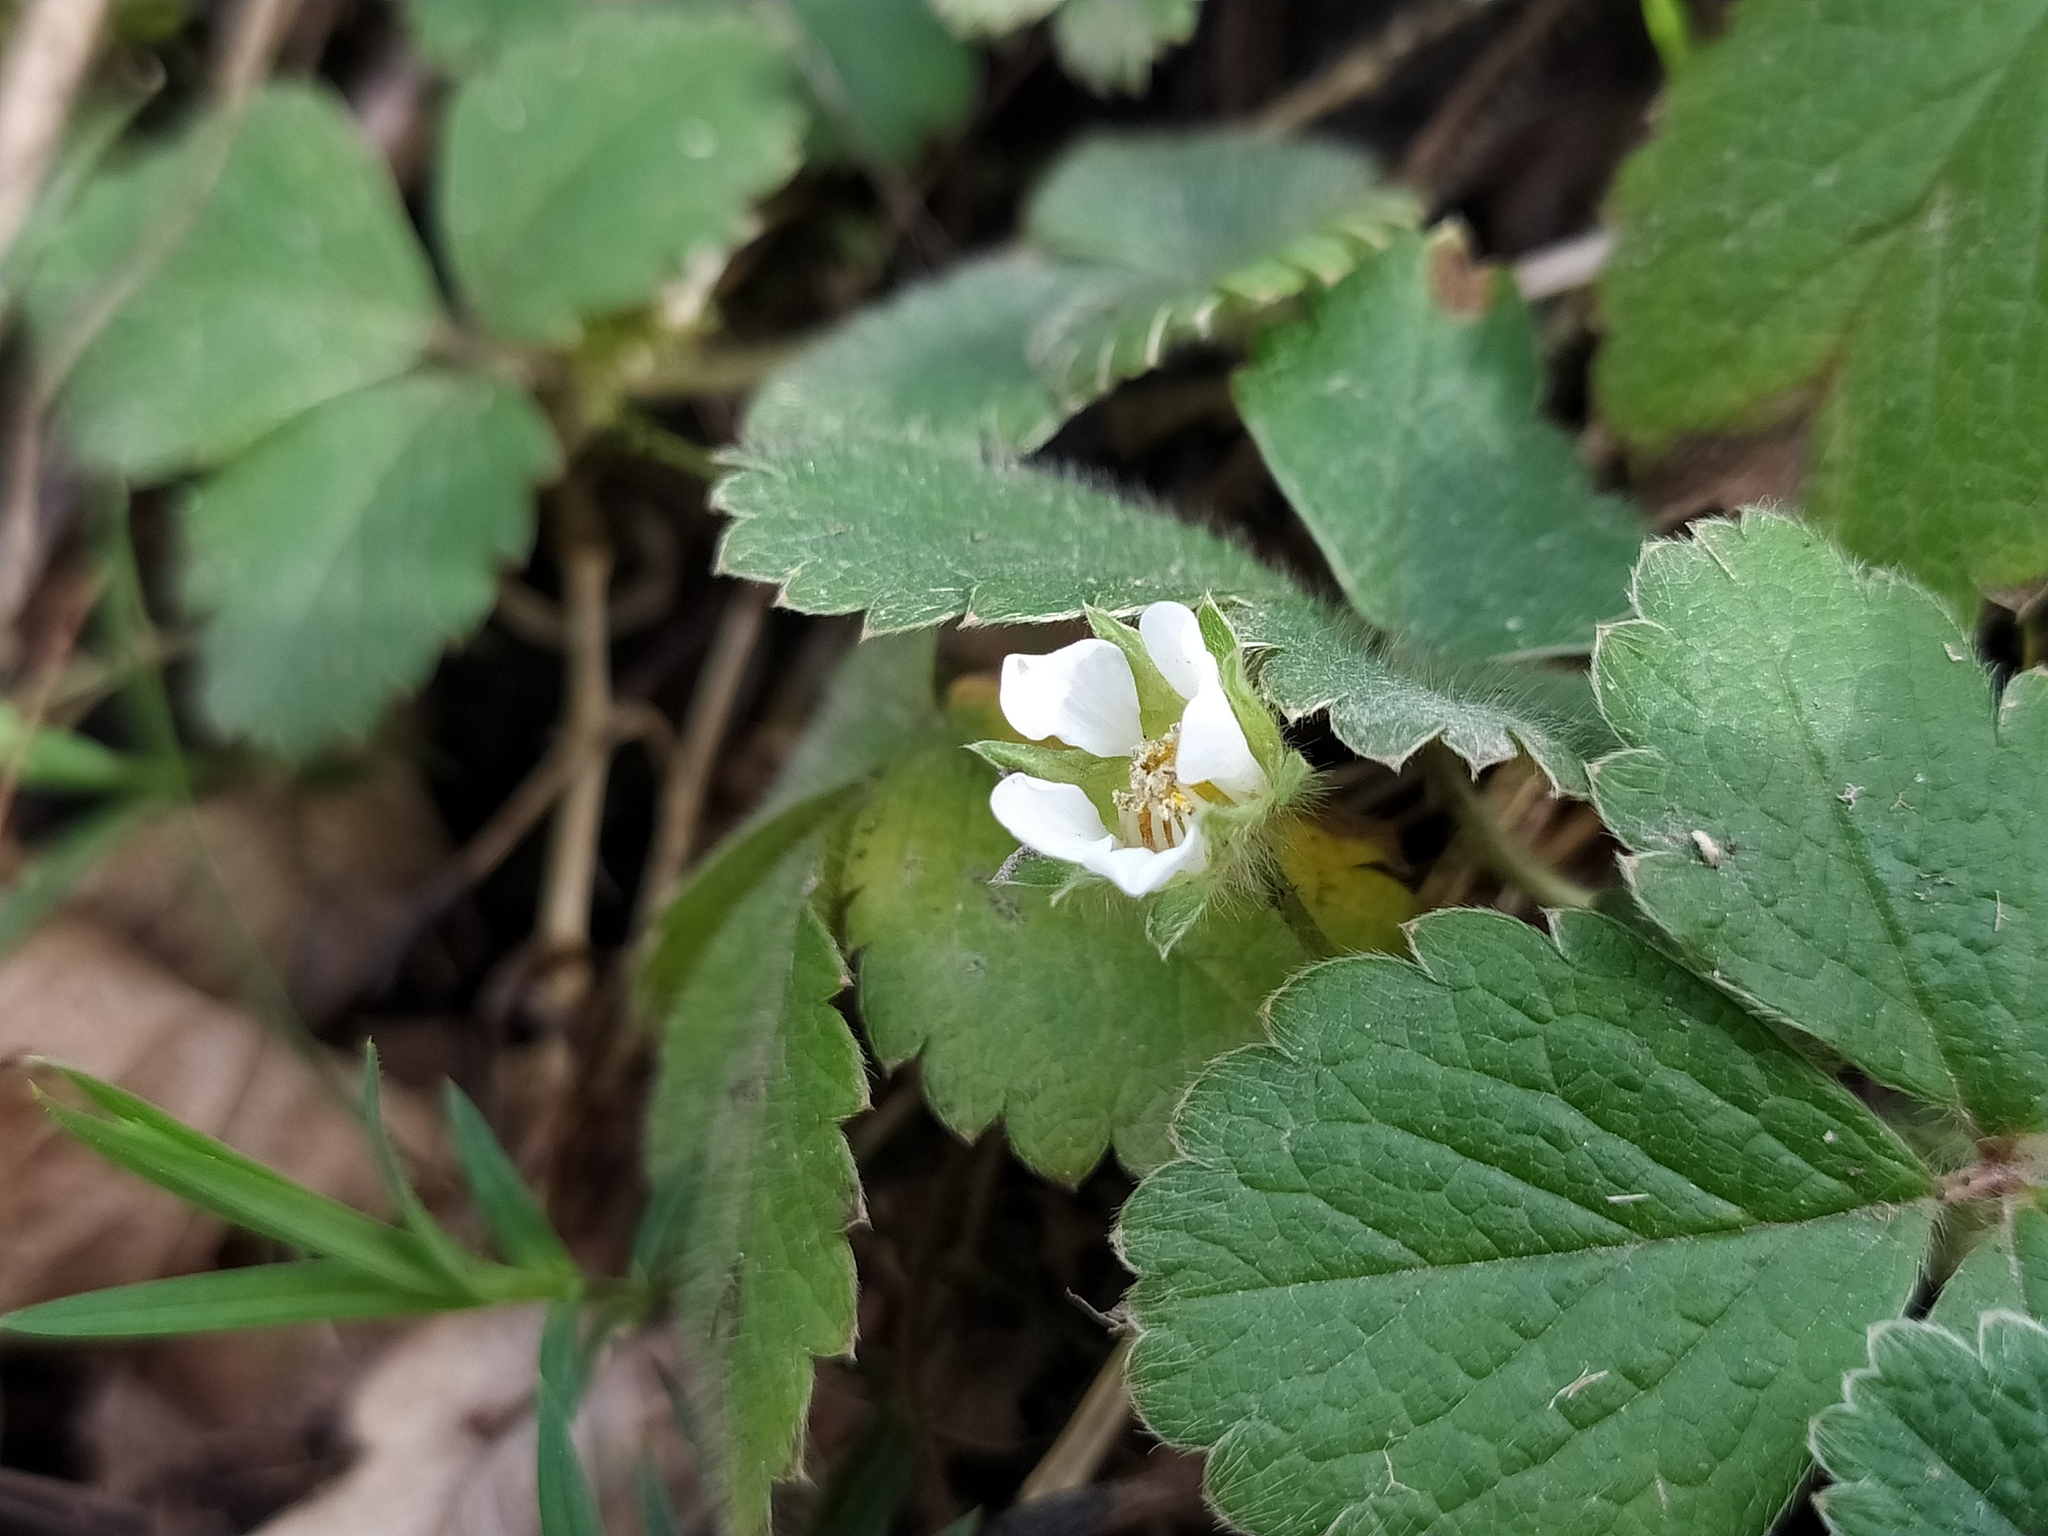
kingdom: Plantae
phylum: Tracheophyta
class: Magnoliopsida
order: Rosales
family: Rosaceae
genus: Potentilla
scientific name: Potentilla sterilis
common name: Barren strawberry
